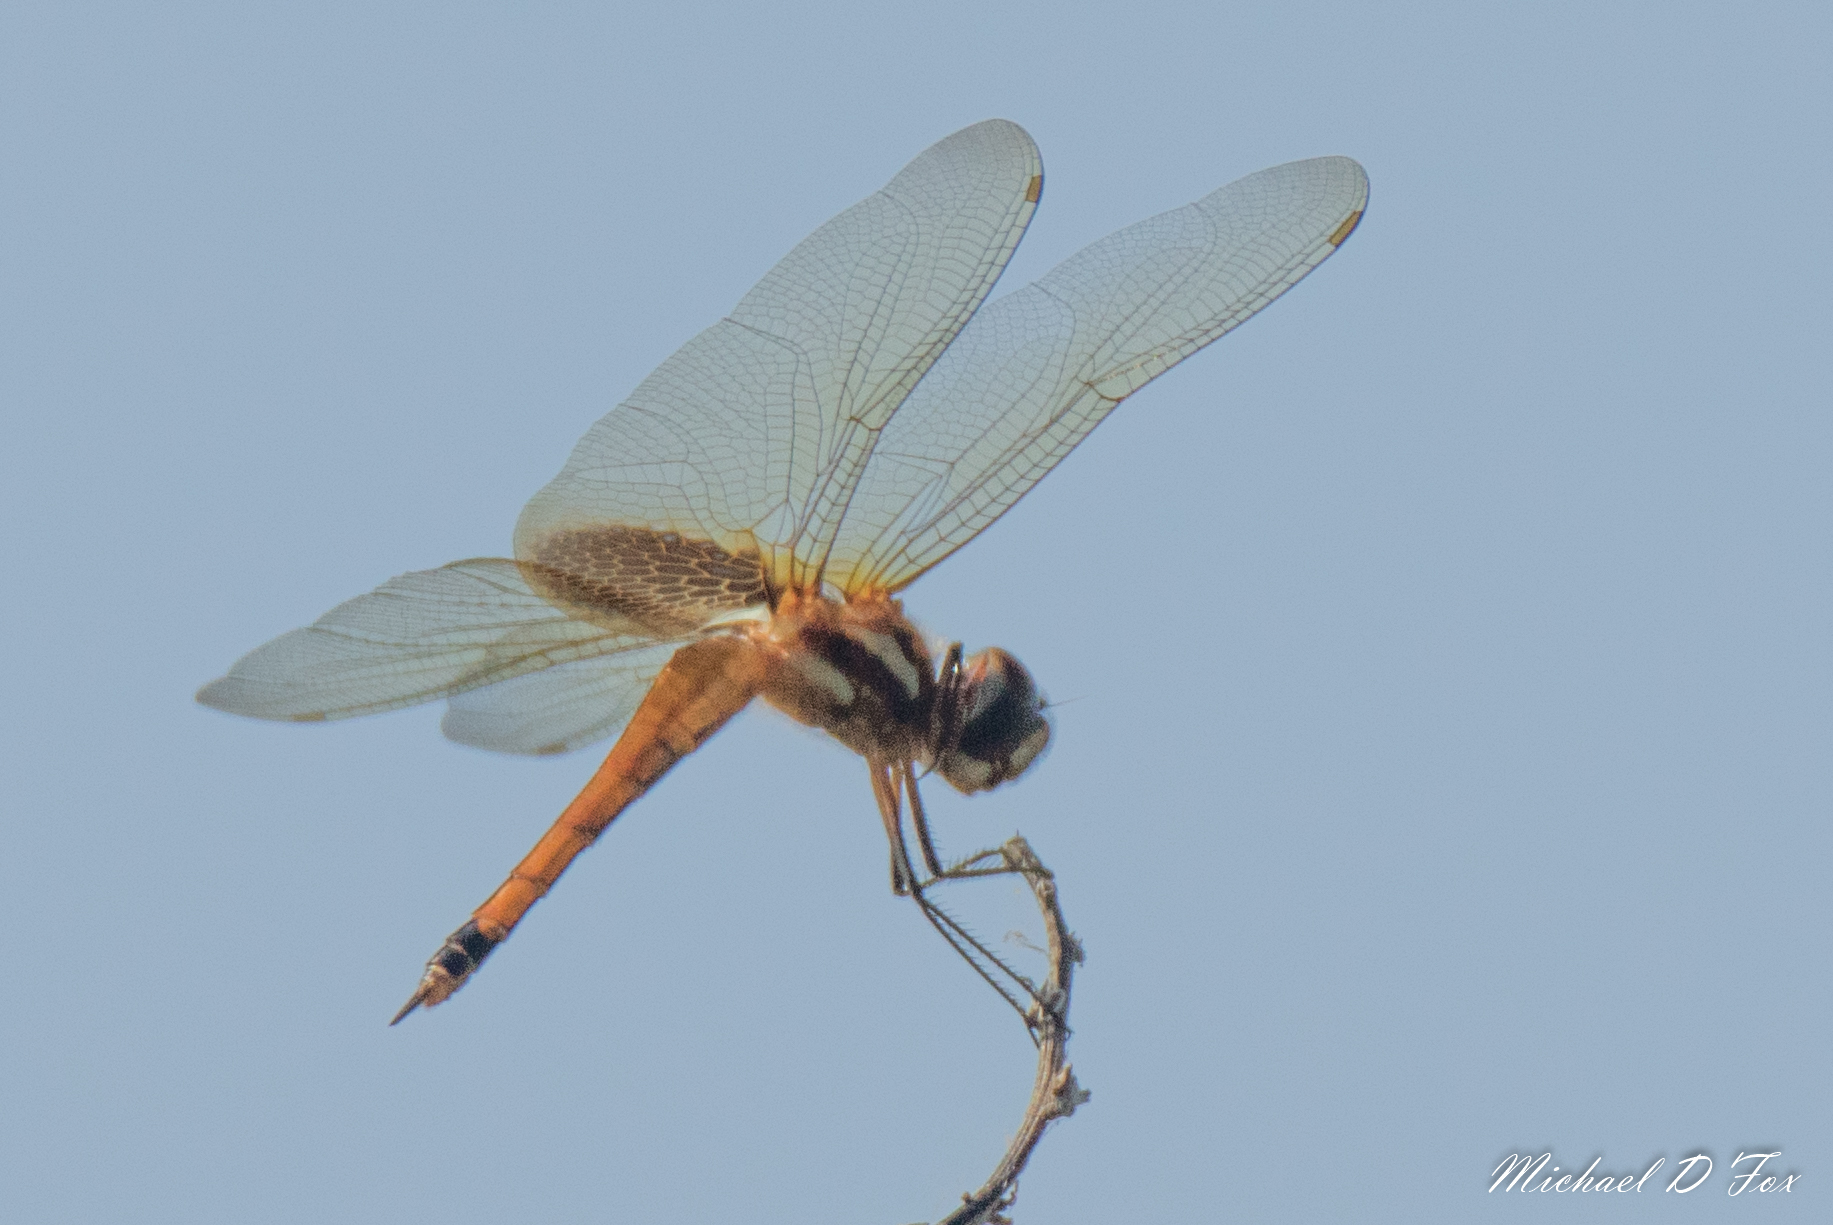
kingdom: Animalia
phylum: Arthropoda
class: Insecta
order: Odonata
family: Libellulidae
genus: Tramea
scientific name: Tramea darwini
